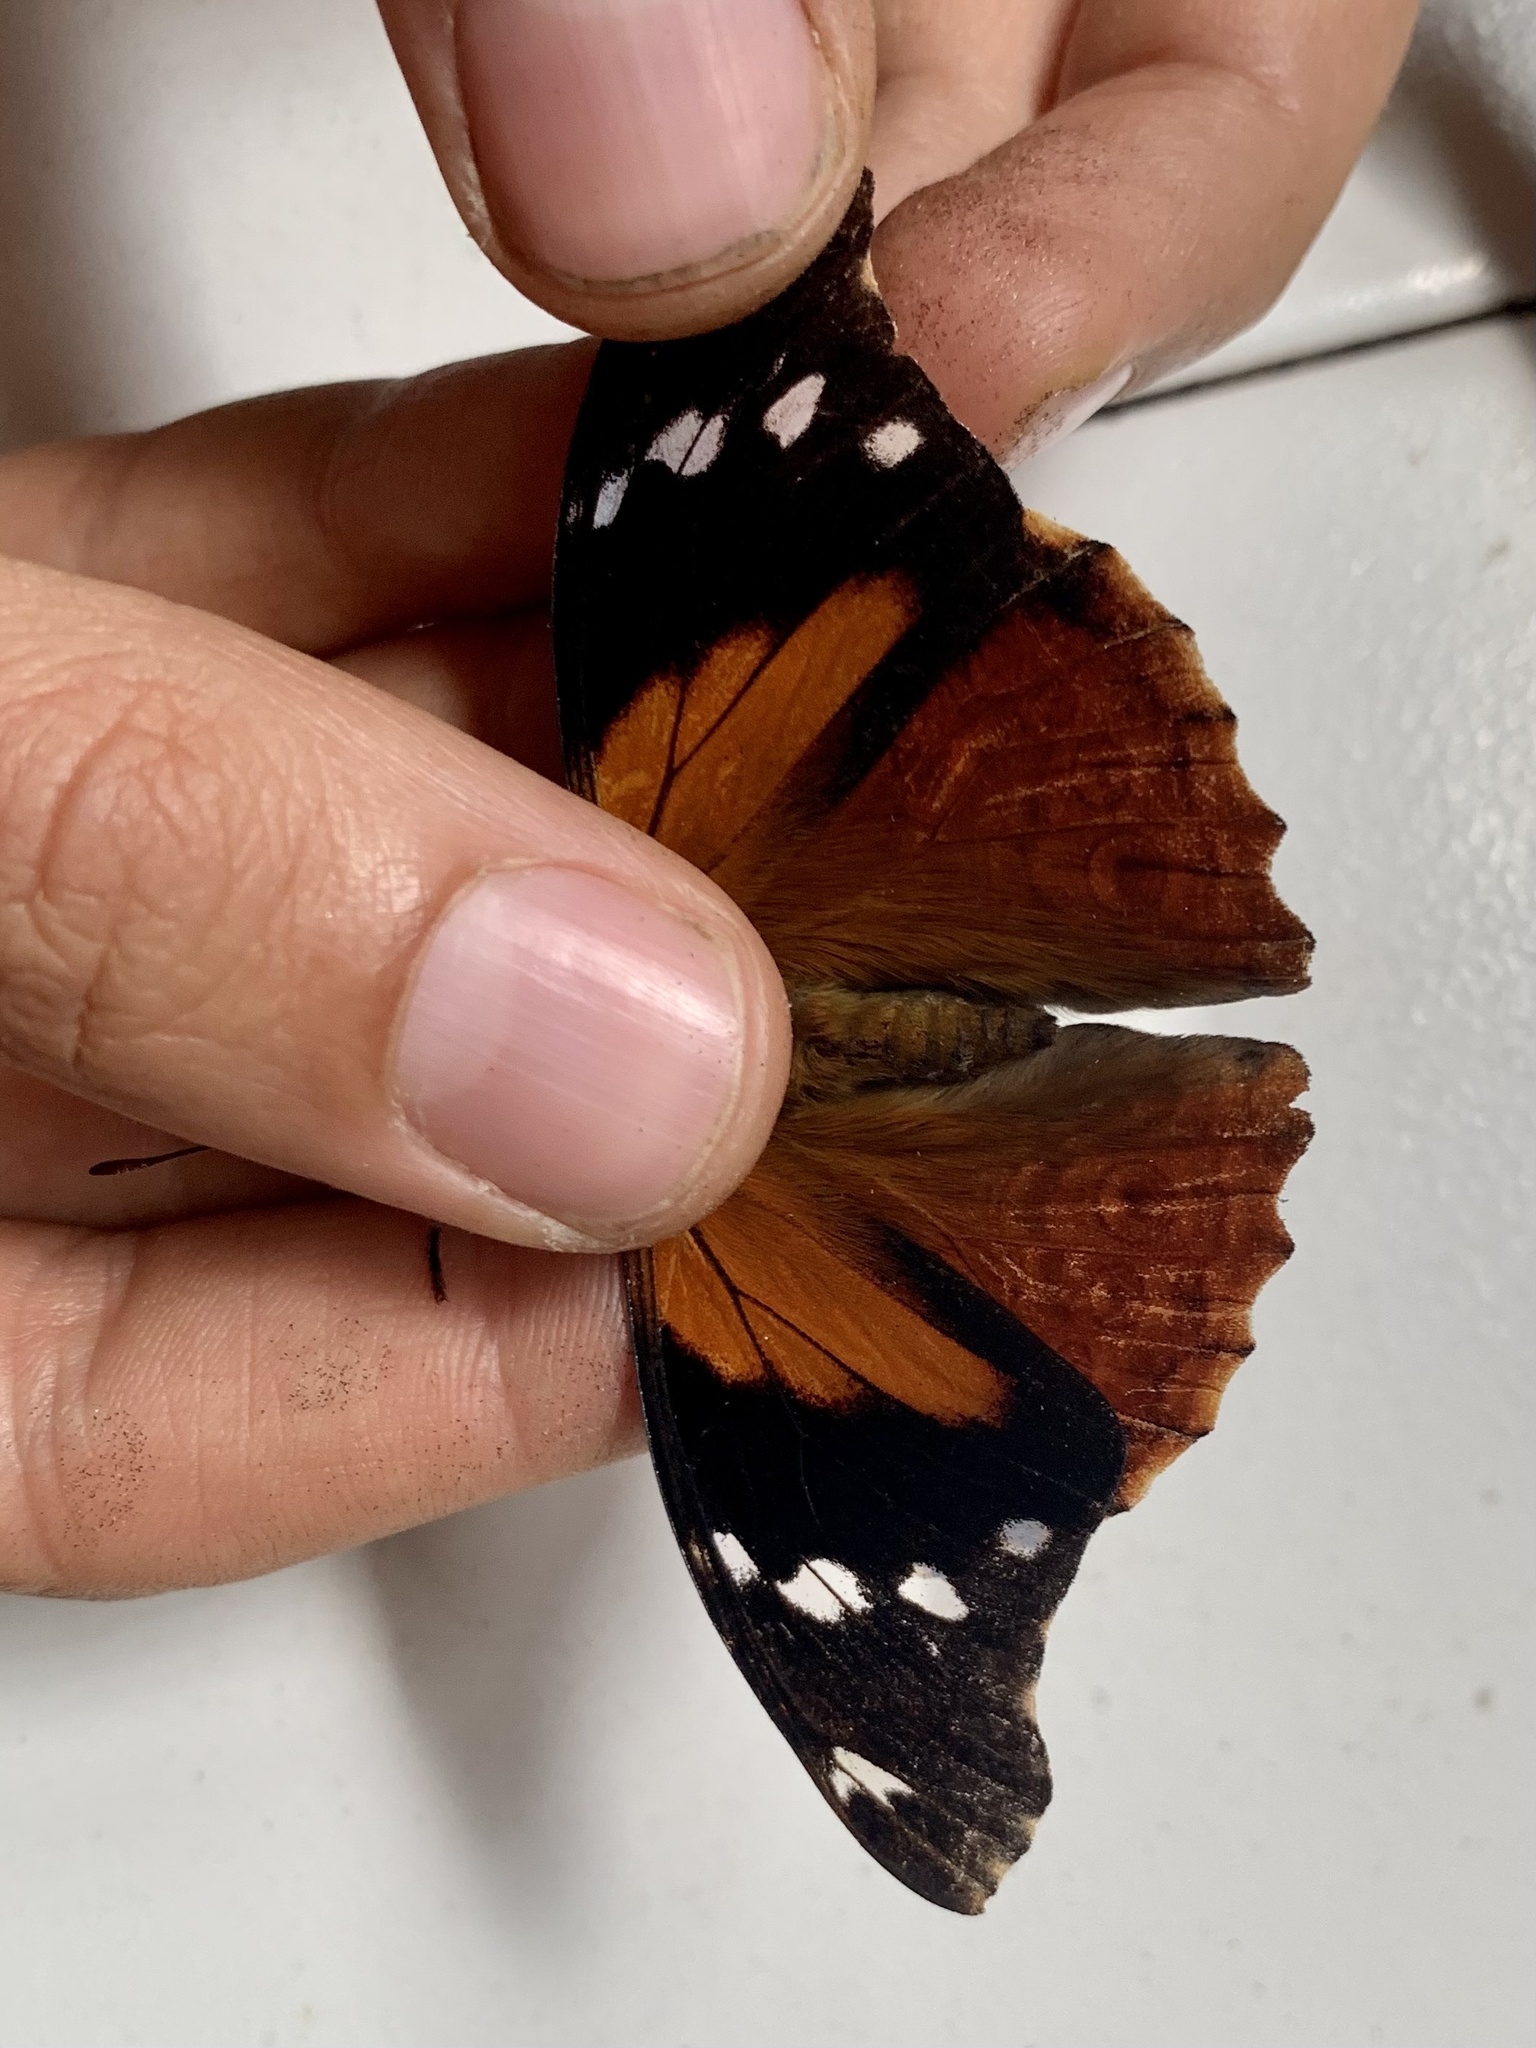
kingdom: Animalia
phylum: Arthropoda
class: Insecta
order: Lepidoptera
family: Nymphalidae
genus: Pycina
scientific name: Pycina zamba
